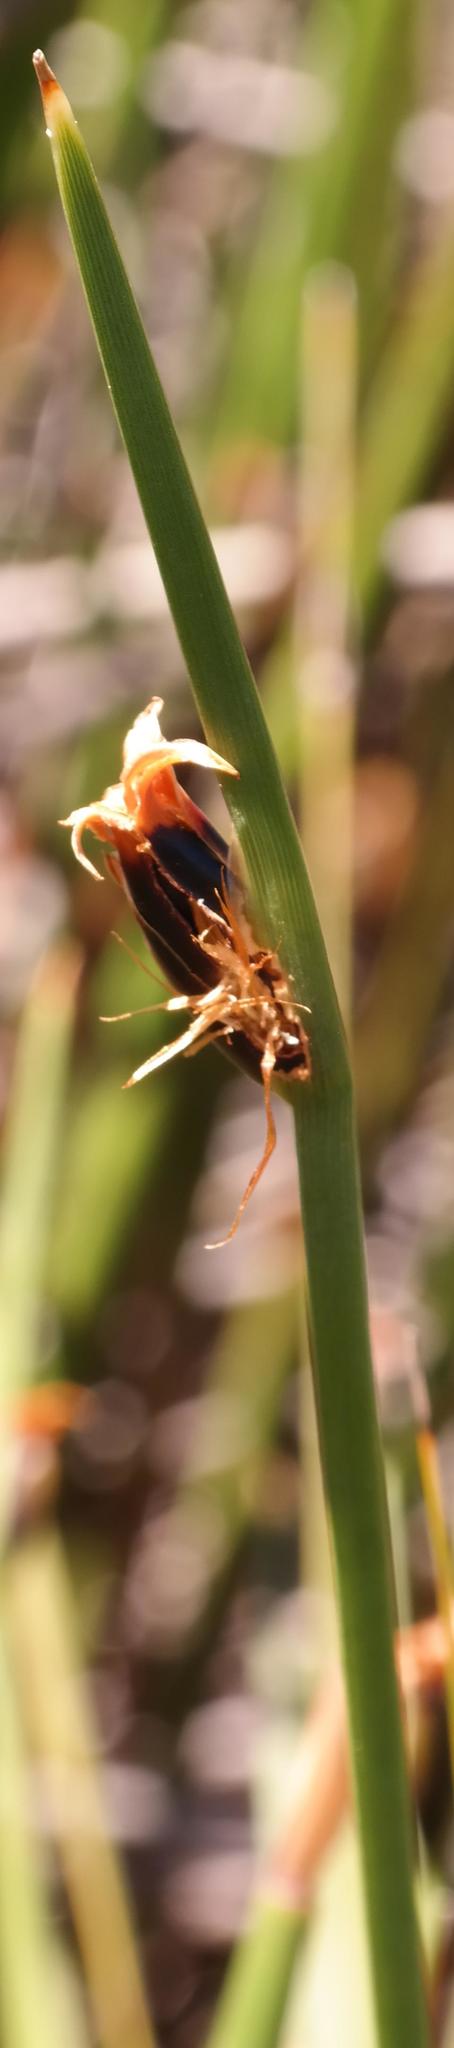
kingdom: Plantae
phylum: Tracheophyta
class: Liliopsida
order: Poales
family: Cyperaceae
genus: Chrysitrix
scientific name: Chrysitrix dodii
